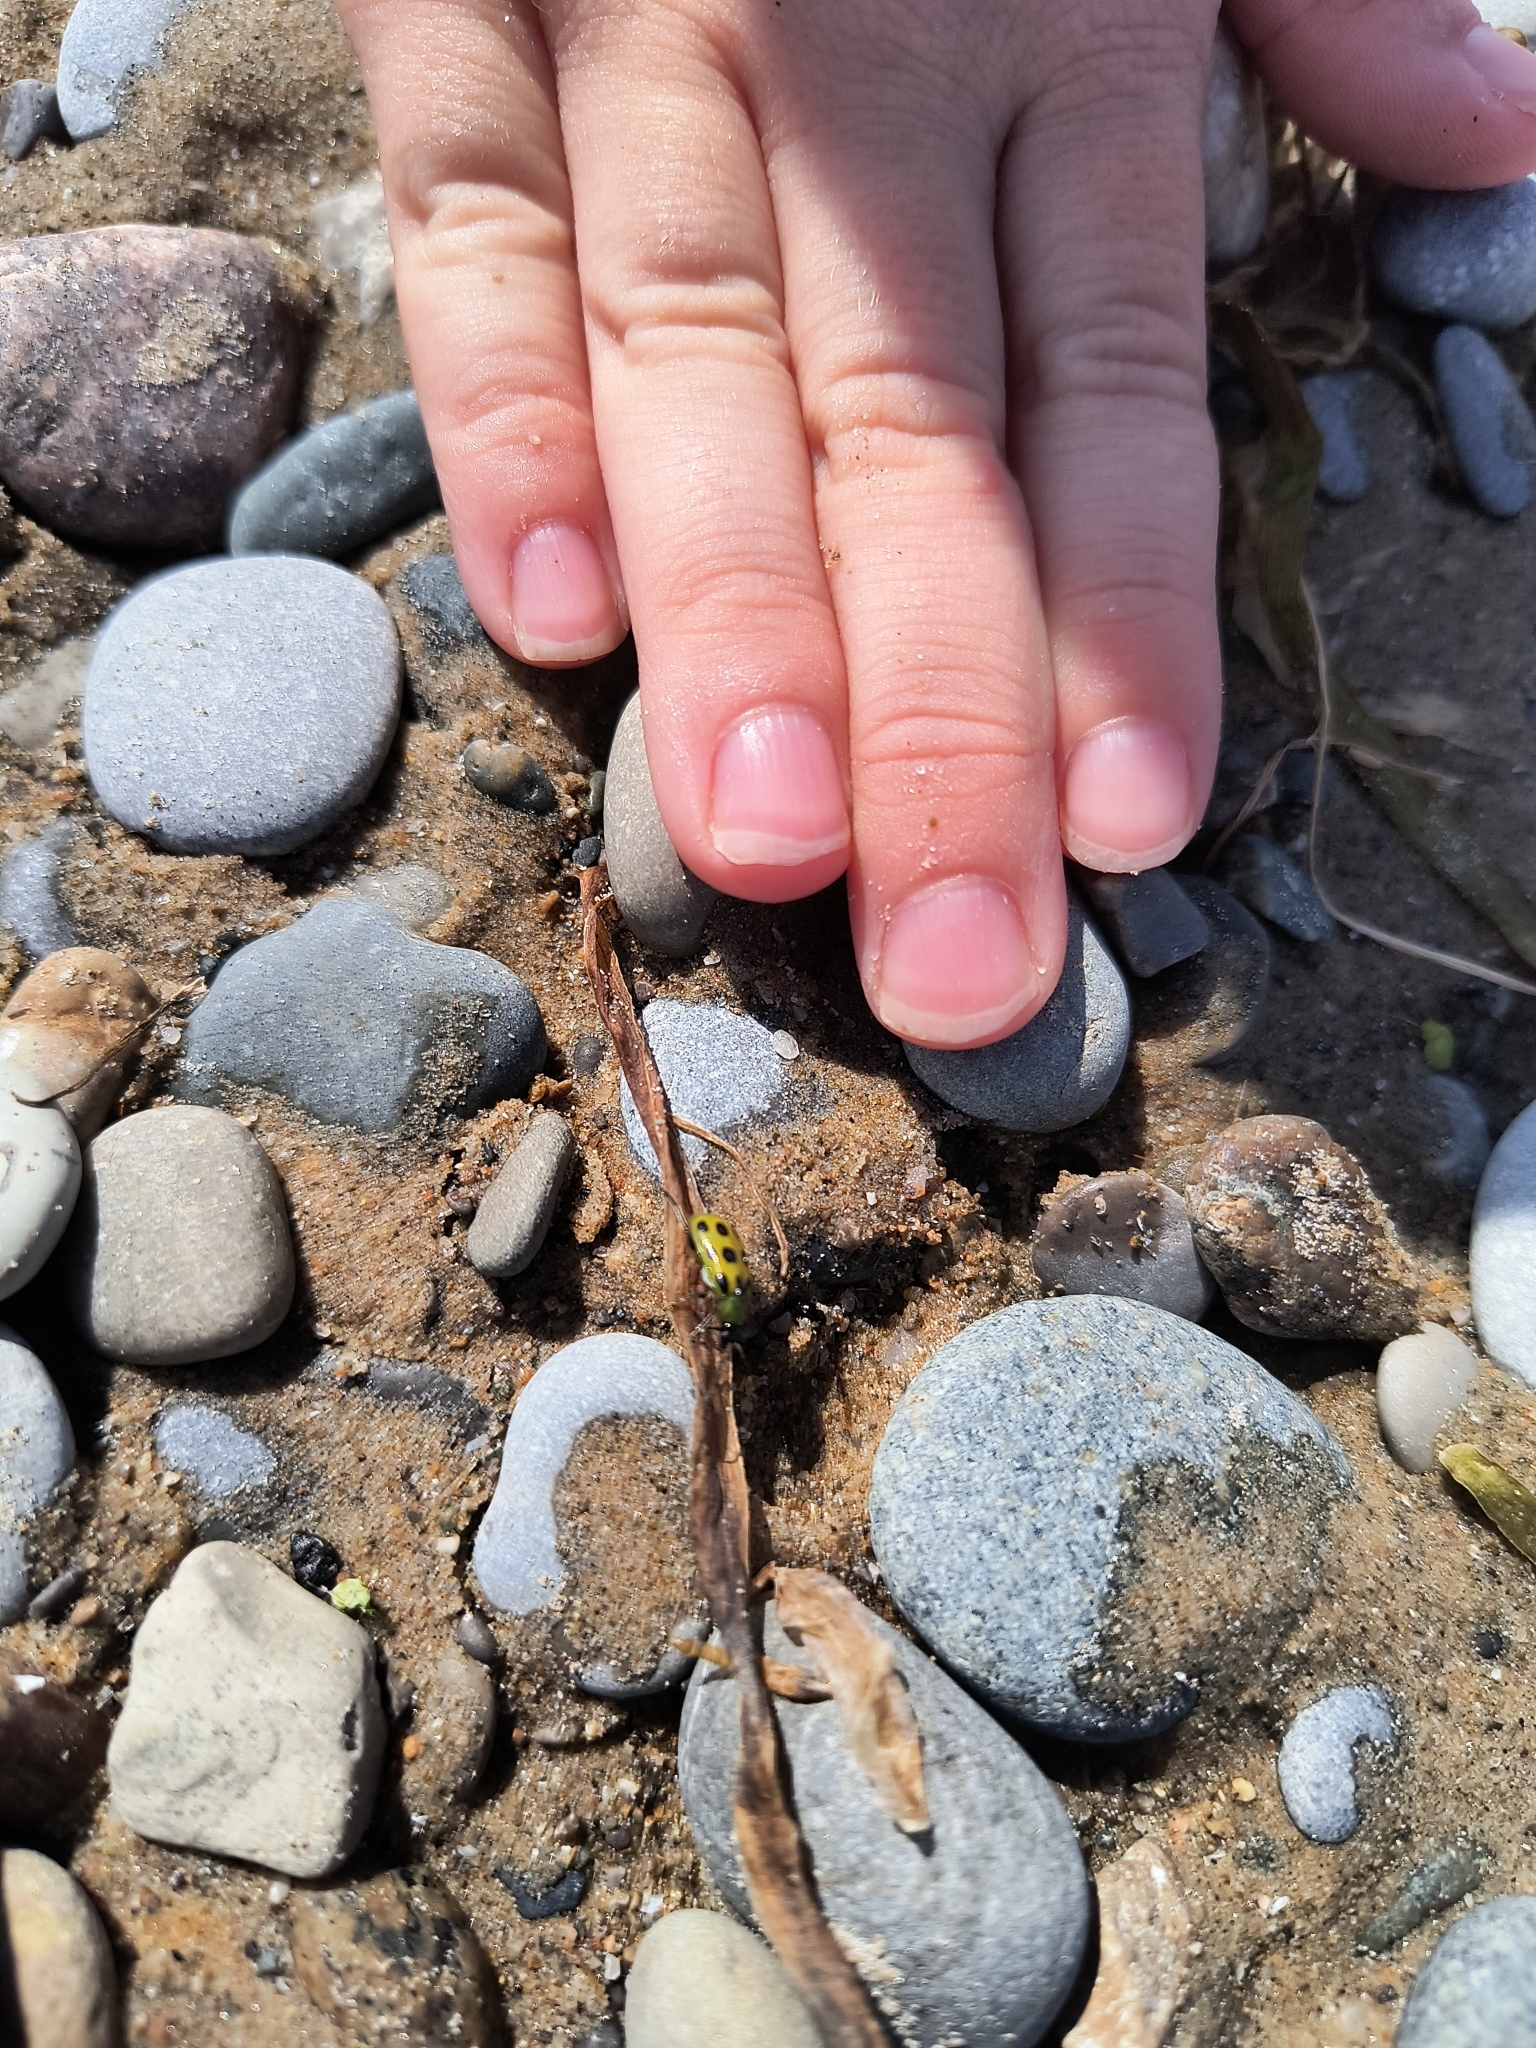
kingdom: Animalia
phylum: Arthropoda
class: Insecta
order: Coleoptera
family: Chrysomelidae
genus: Diabrotica
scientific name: Diabrotica undecimpunctata
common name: Spotted cucumber beetle
